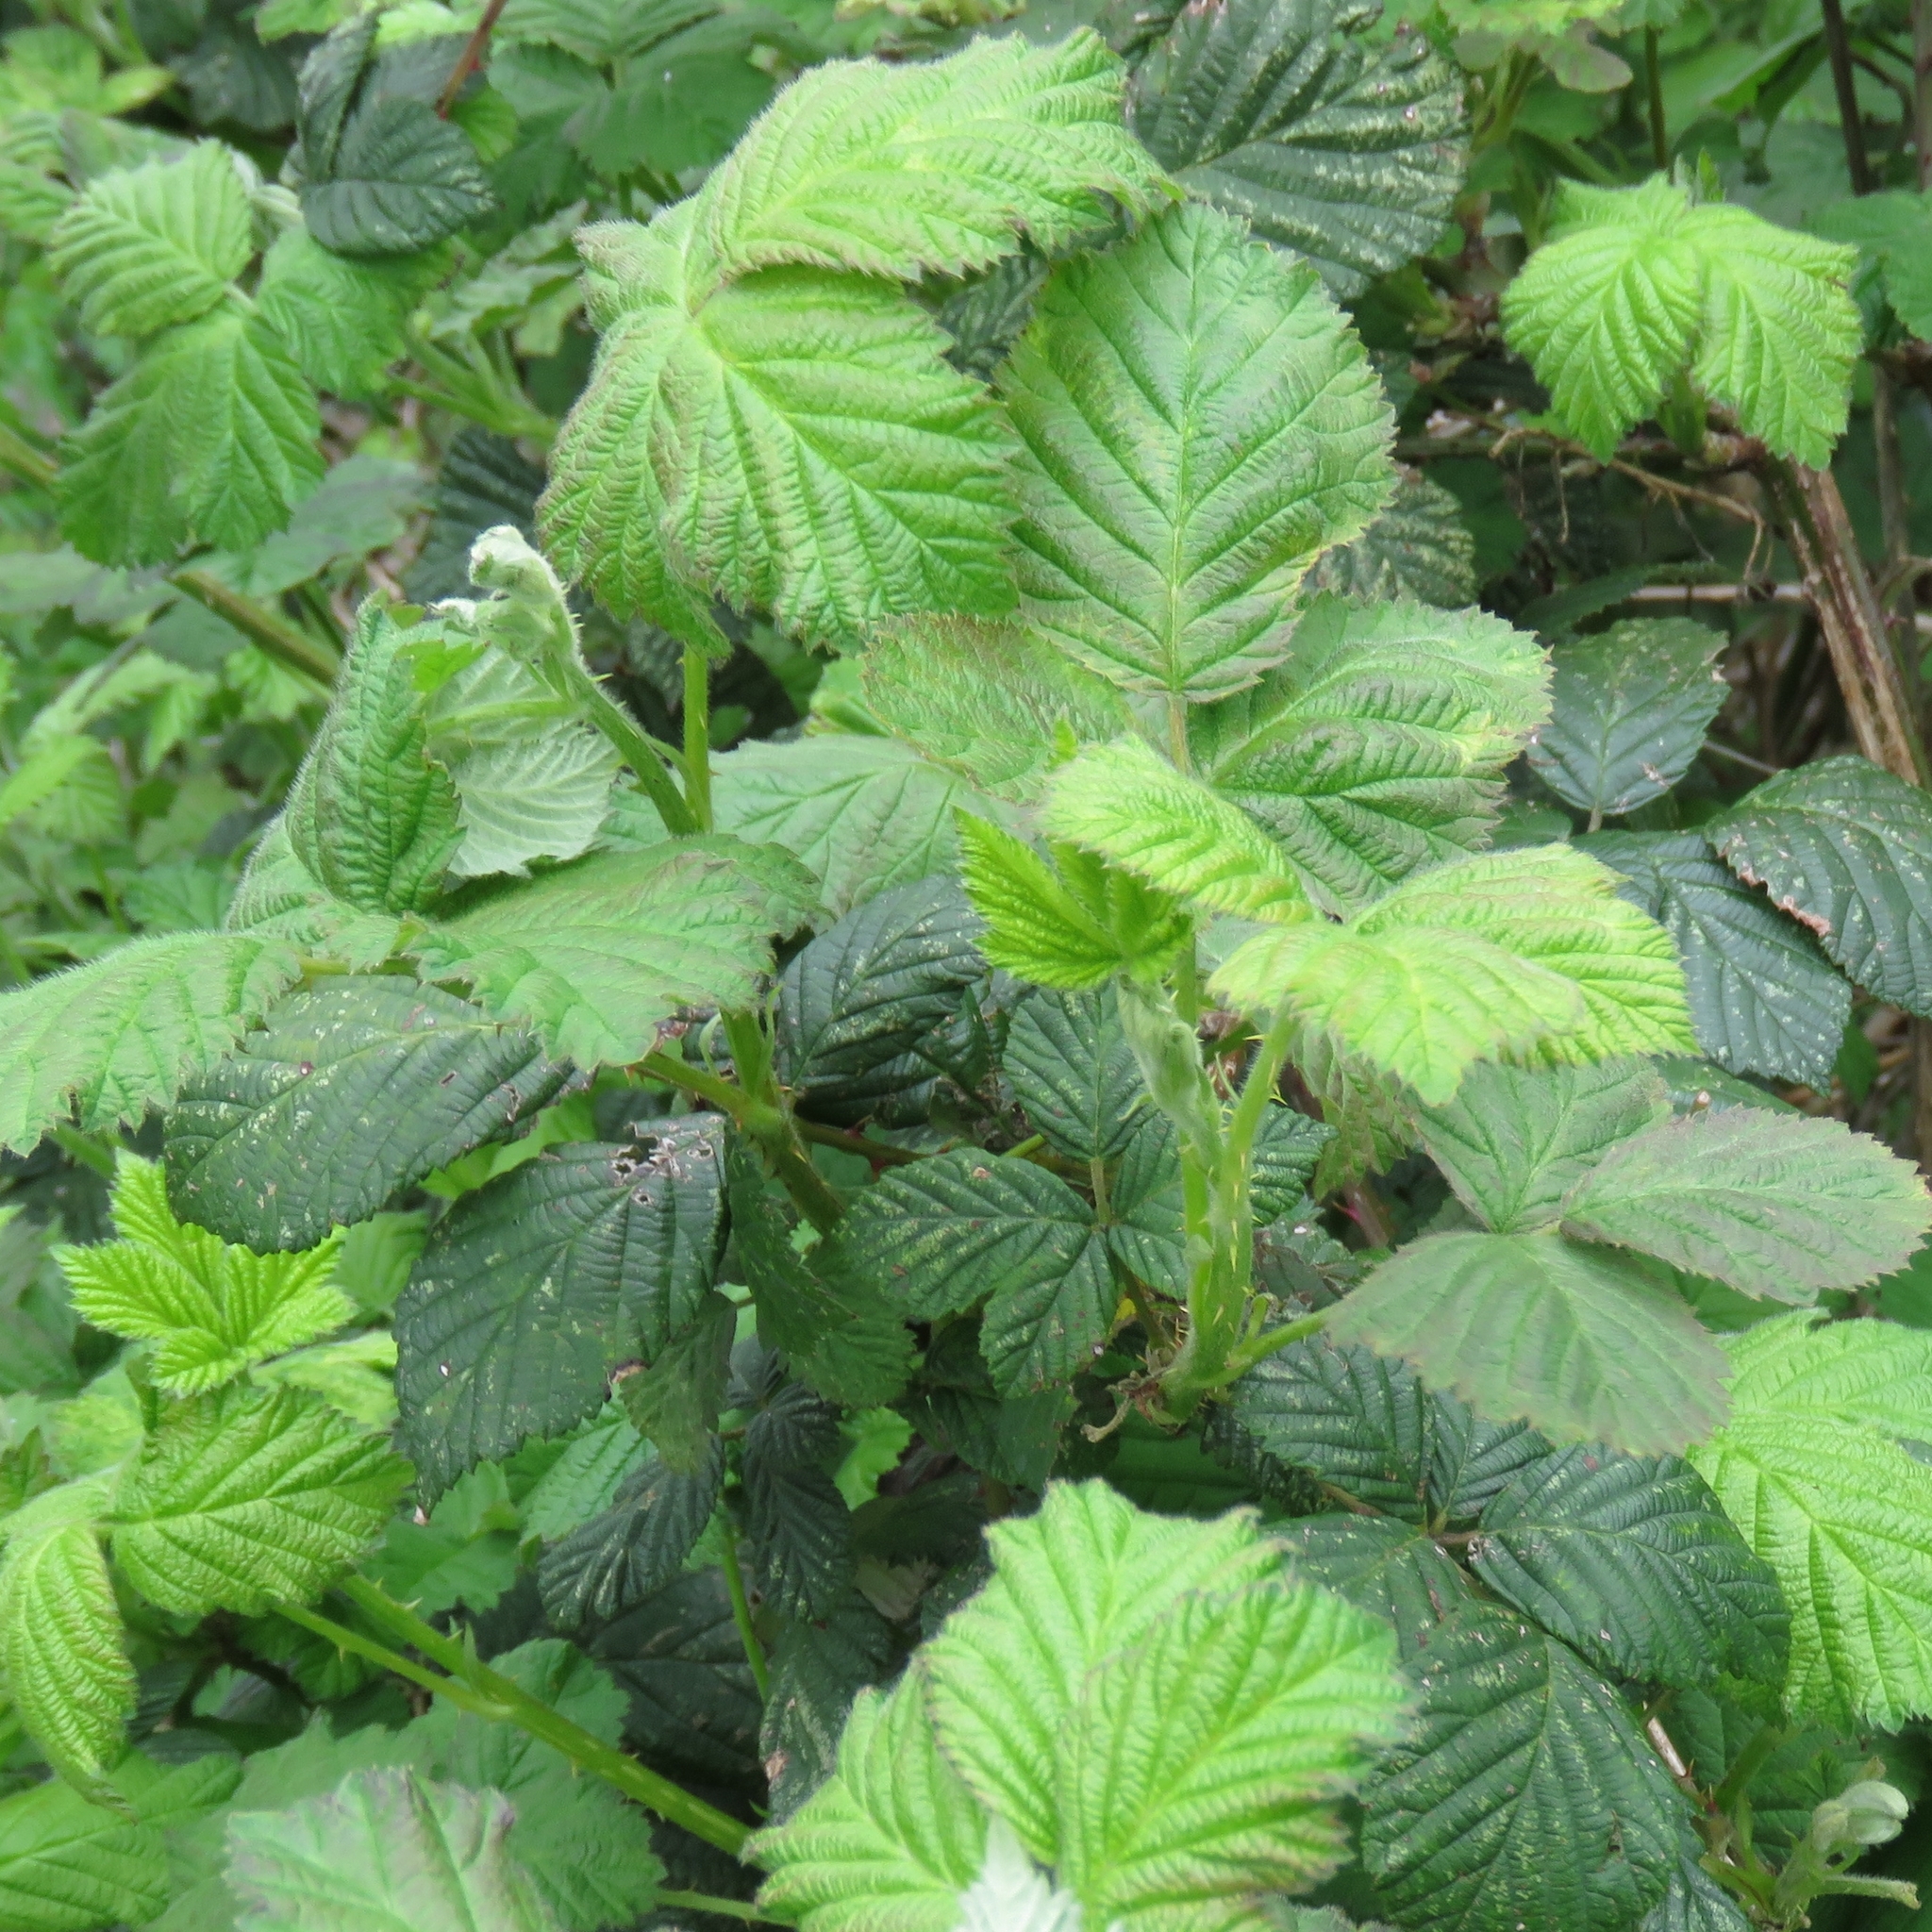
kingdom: Plantae
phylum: Tracheophyta
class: Magnoliopsida
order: Rosales
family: Rosaceae
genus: Rubus
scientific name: Rubus fruticosus
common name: Blackberry, bramble
